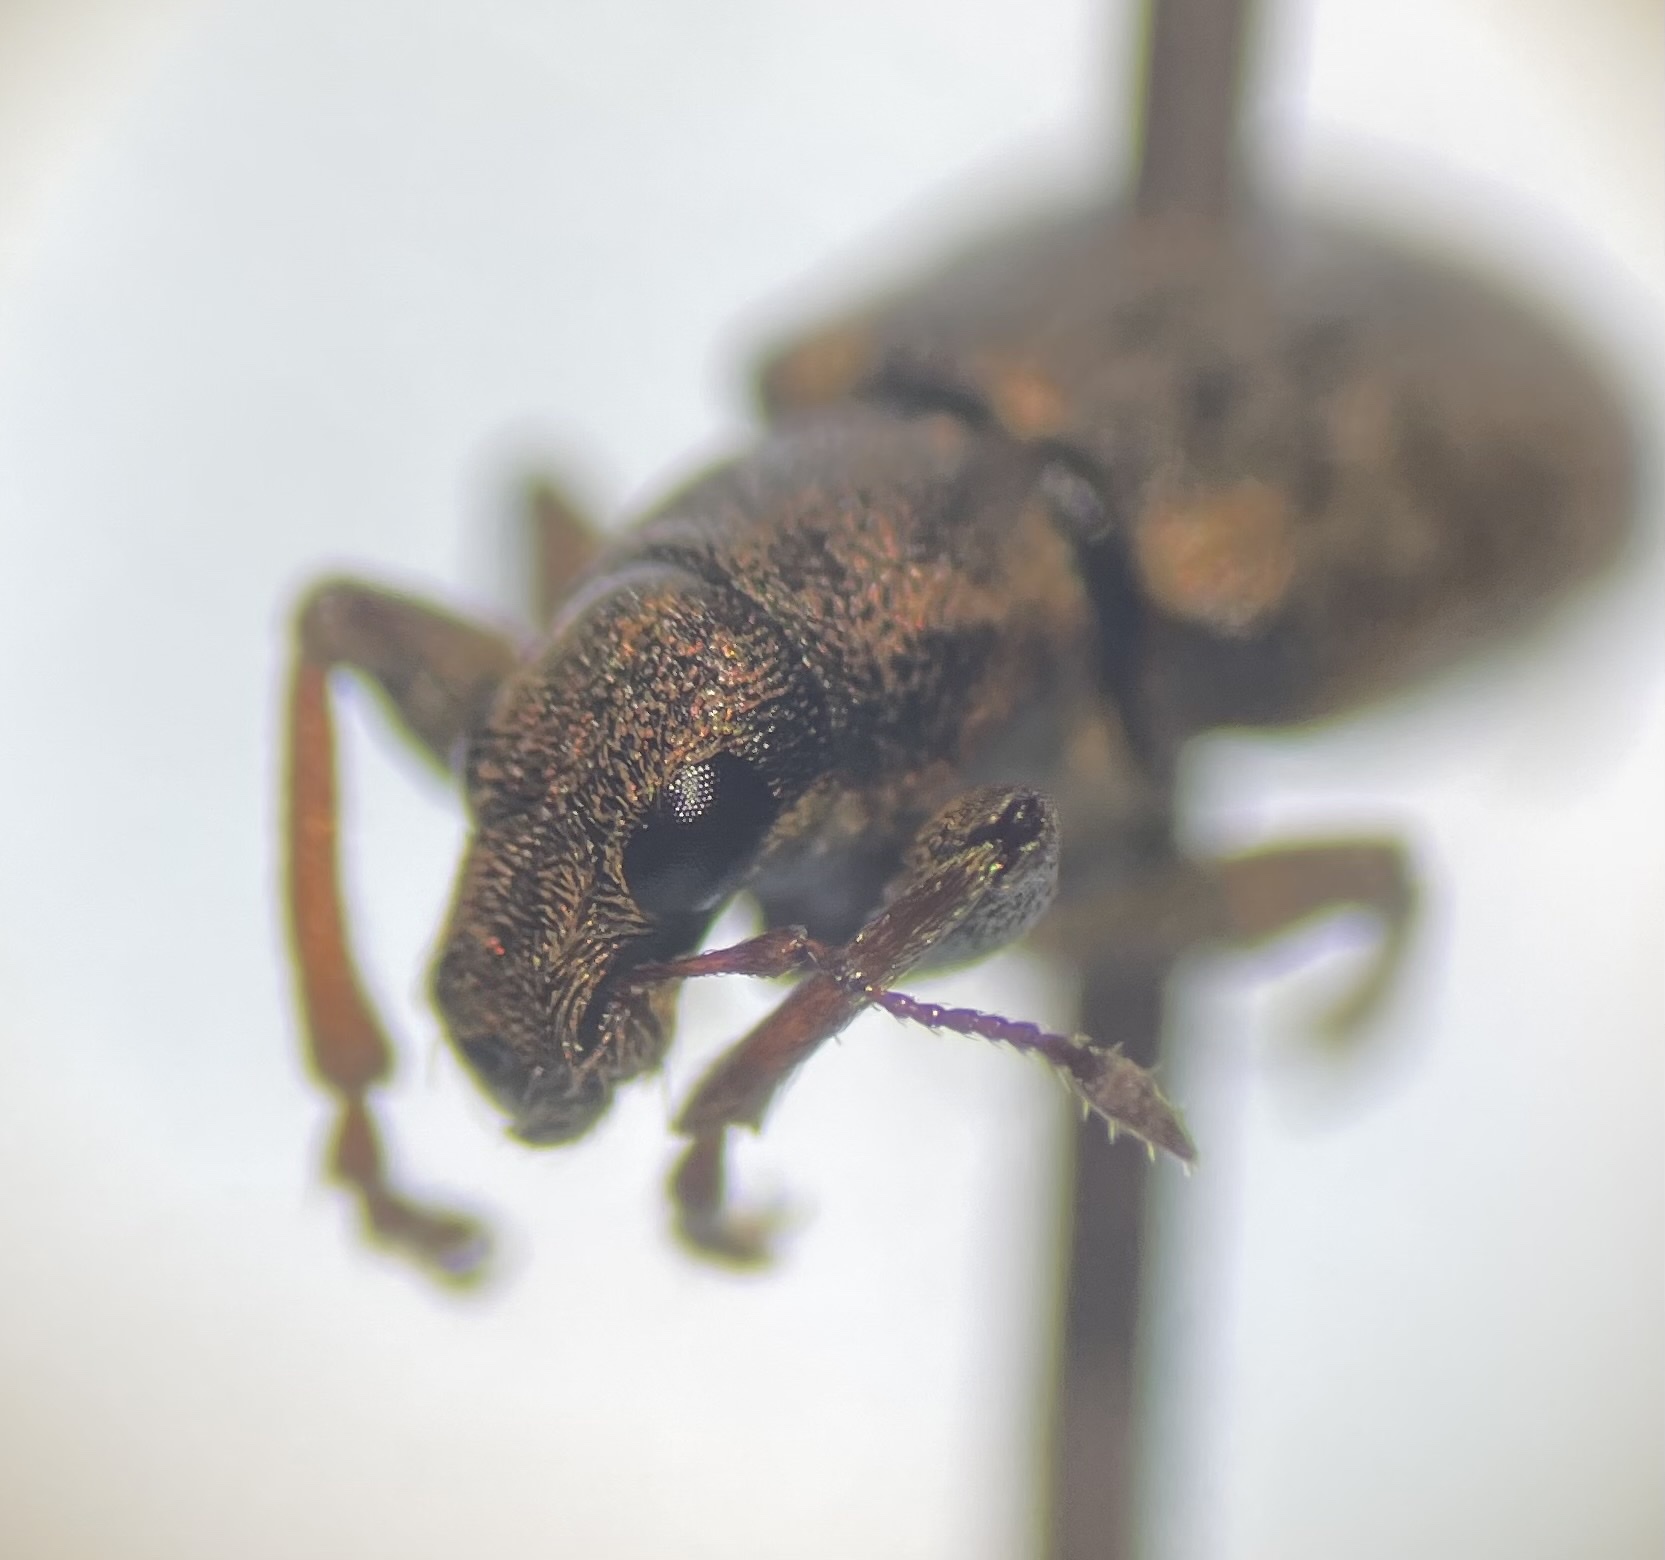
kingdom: Animalia
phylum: Arthropoda
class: Insecta
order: Coleoptera
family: Curculionidae
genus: Sitona
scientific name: Sitona cylindricollis
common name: Weevil
